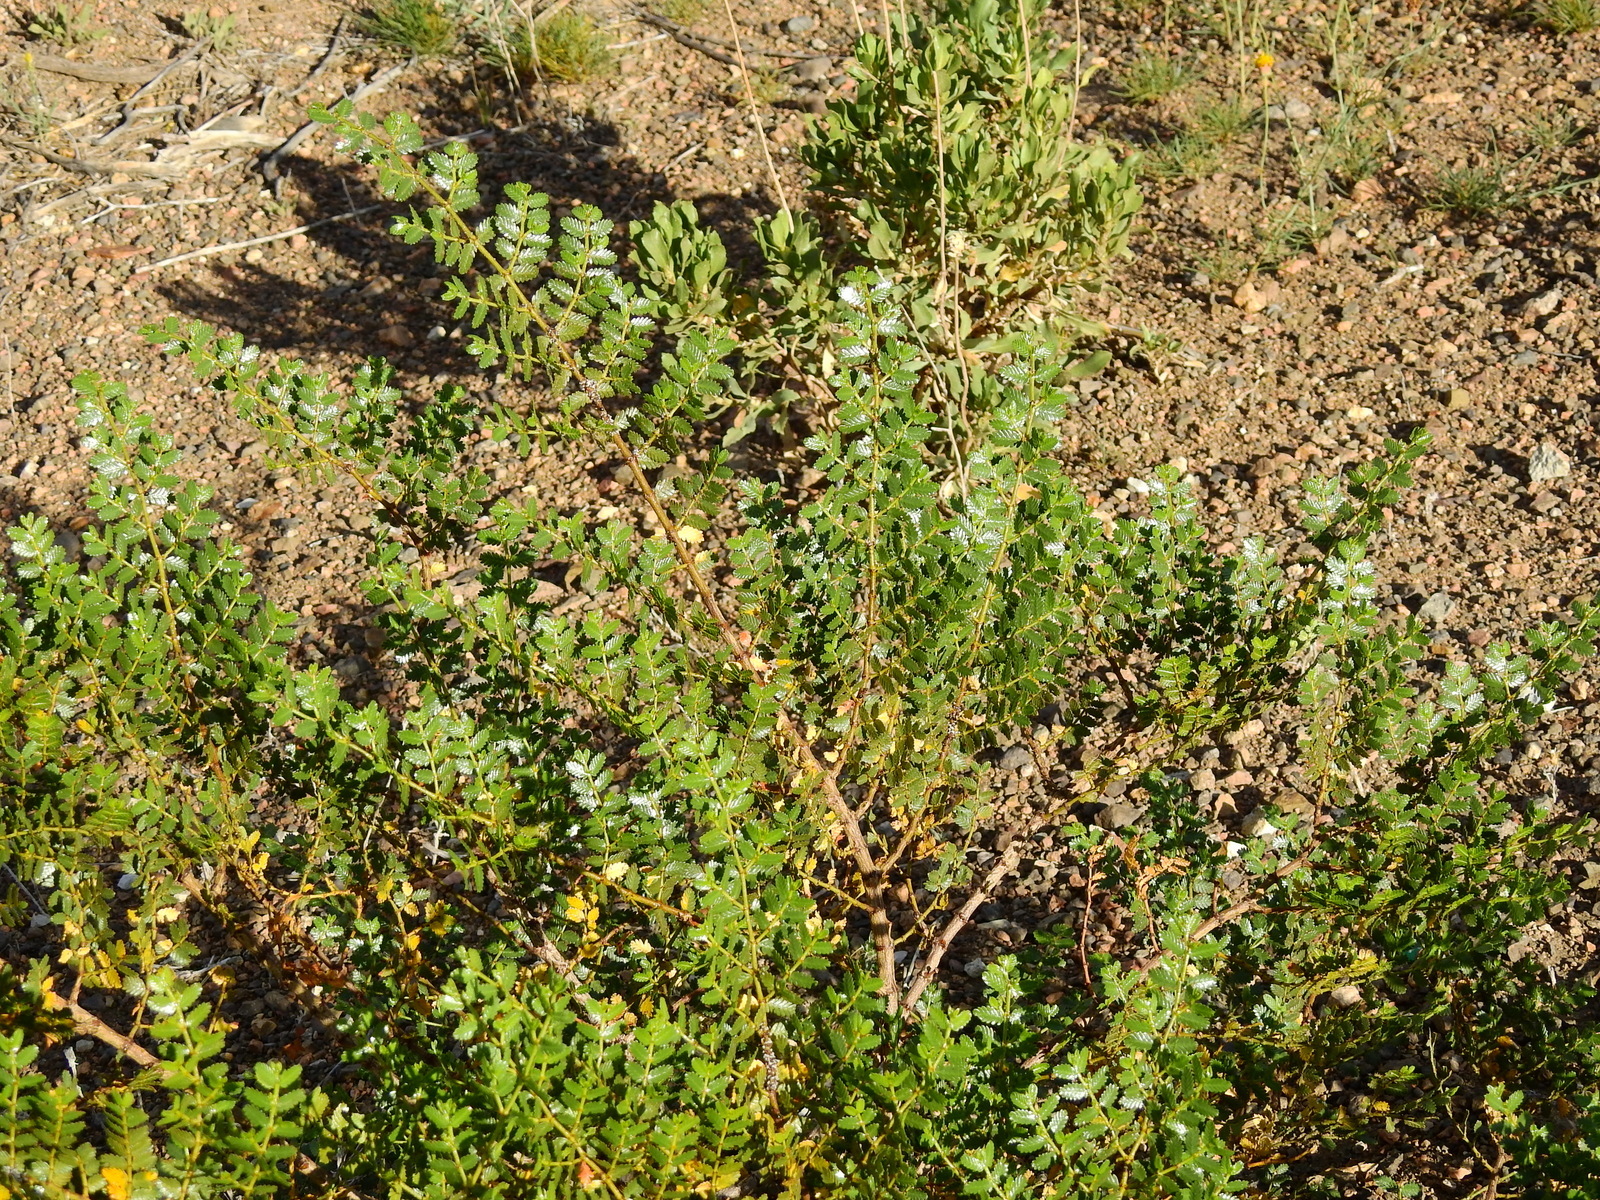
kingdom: Plantae
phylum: Tracheophyta
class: Magnoliopsida
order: Zygophyllales
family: Zygophyllaceae
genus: Larrea
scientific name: Larrea nitida
